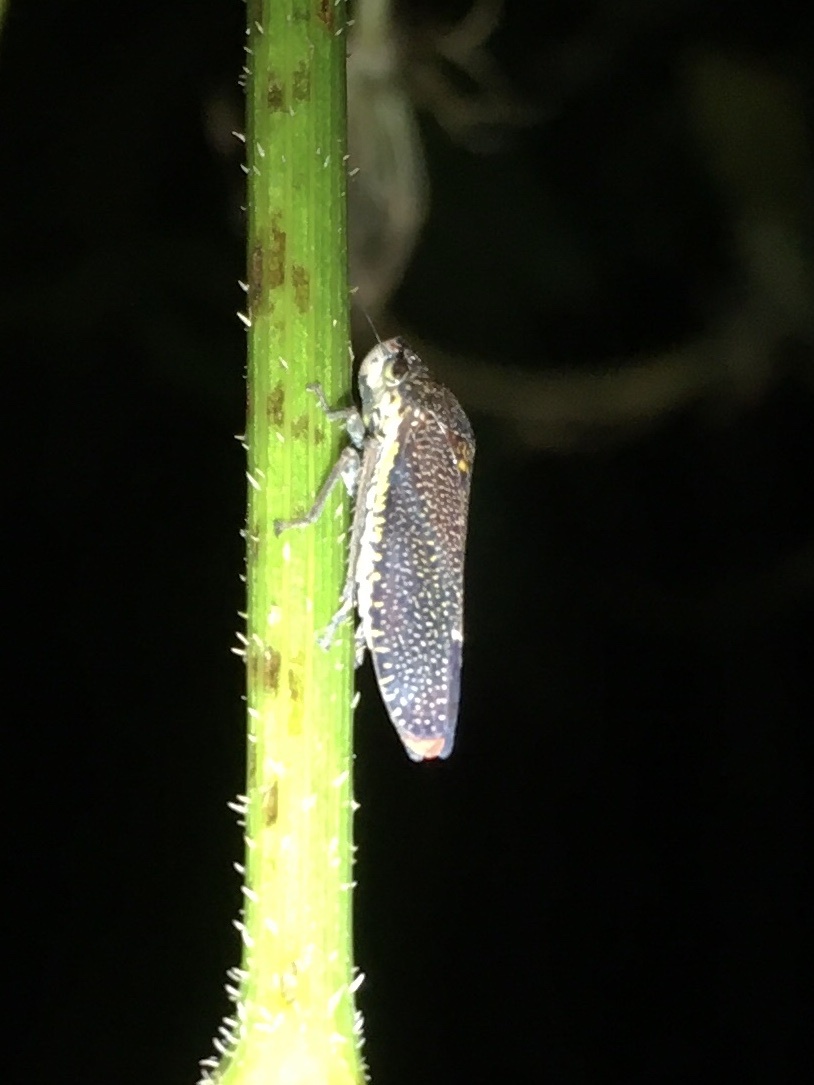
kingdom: Animalia
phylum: Arthropoda
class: Insecta
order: Hemiptera
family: Cicadellidae
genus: Paraulacizes
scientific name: Paraulacizes irrorata
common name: Speckled sharpshooter
